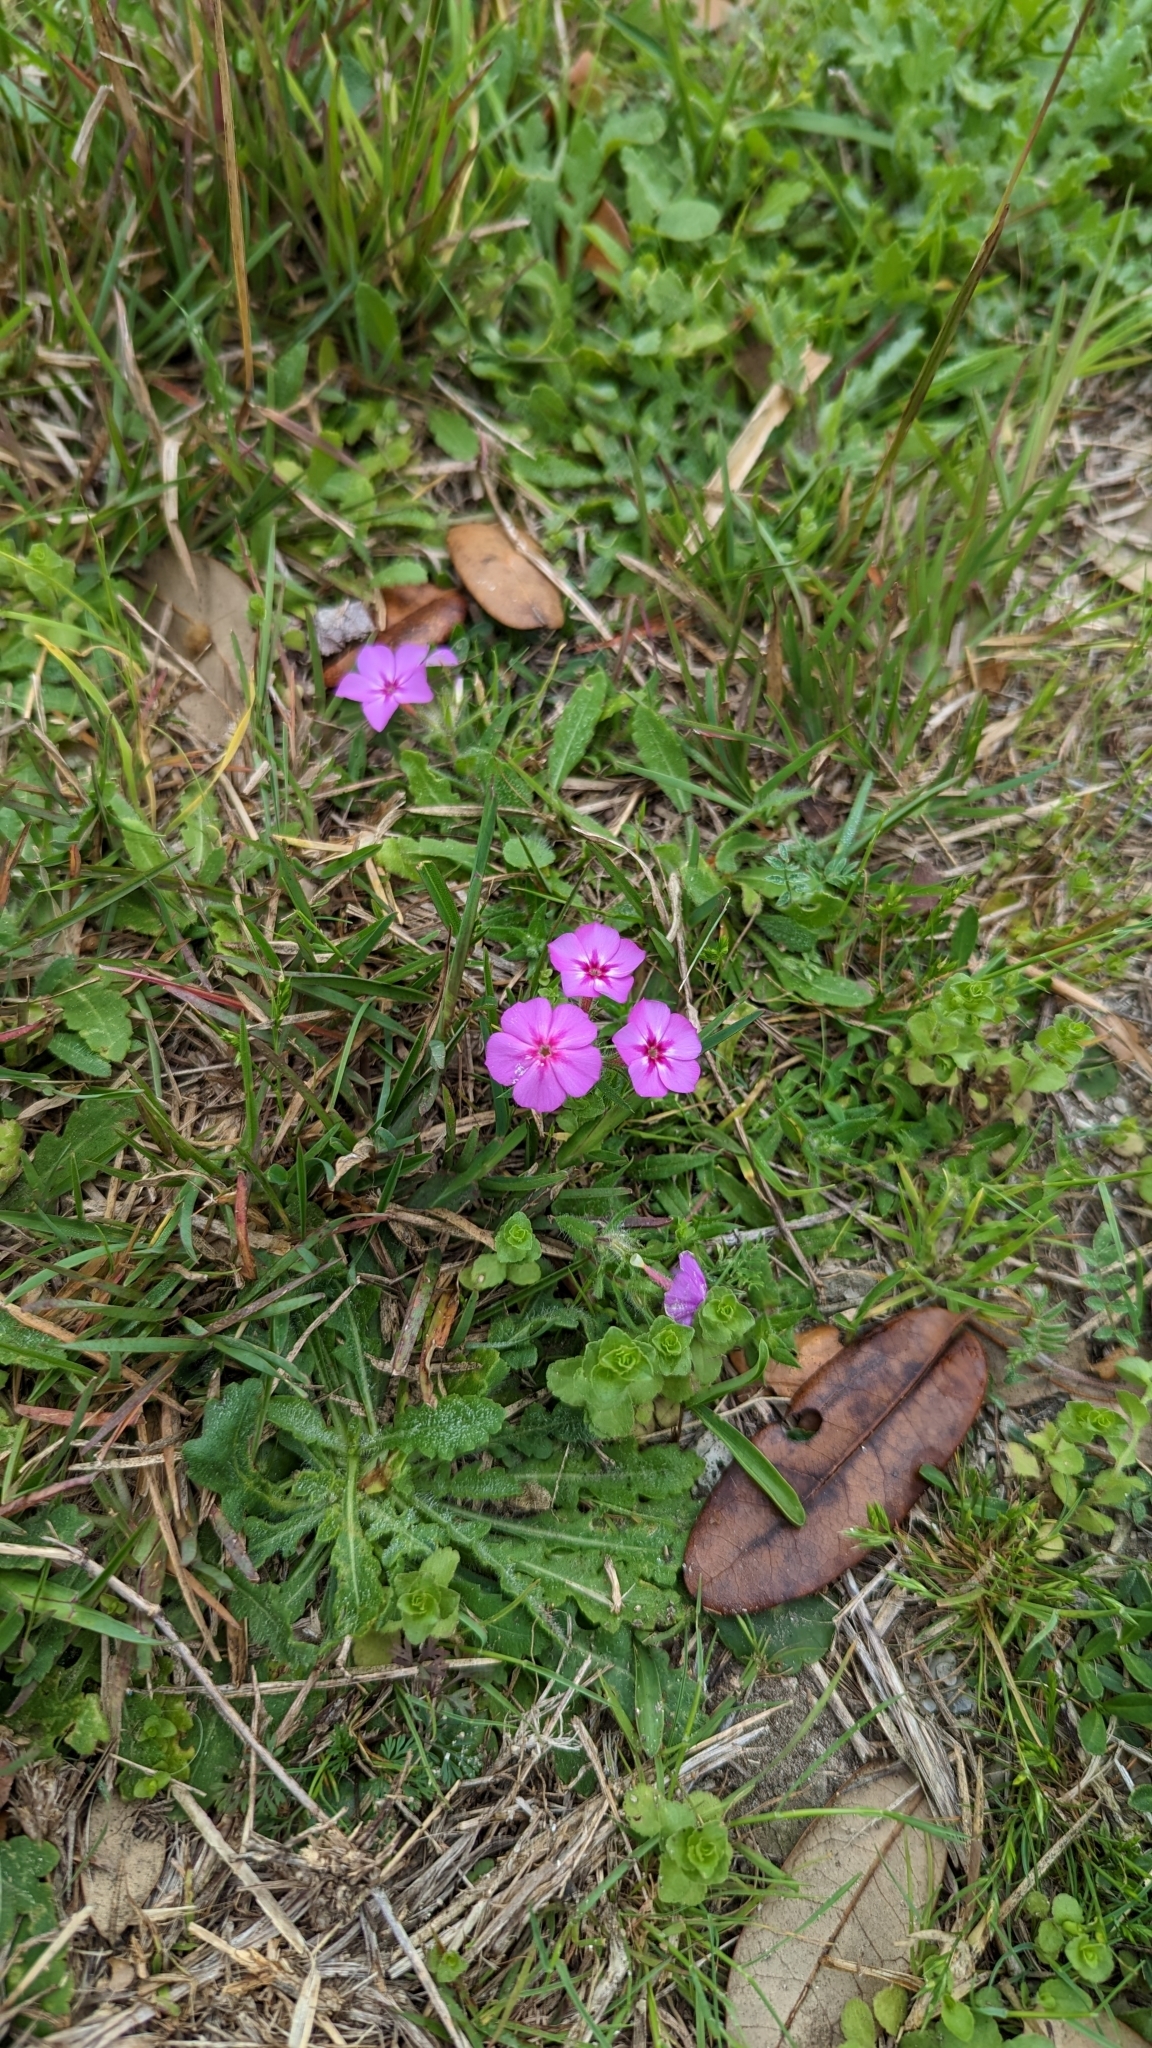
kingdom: Plantae
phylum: Tracheophyta
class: Magnoliopsida
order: Ericales
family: Polemoniaceae
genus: Phlox
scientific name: Phlox drummondii
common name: Drummond's phlox
